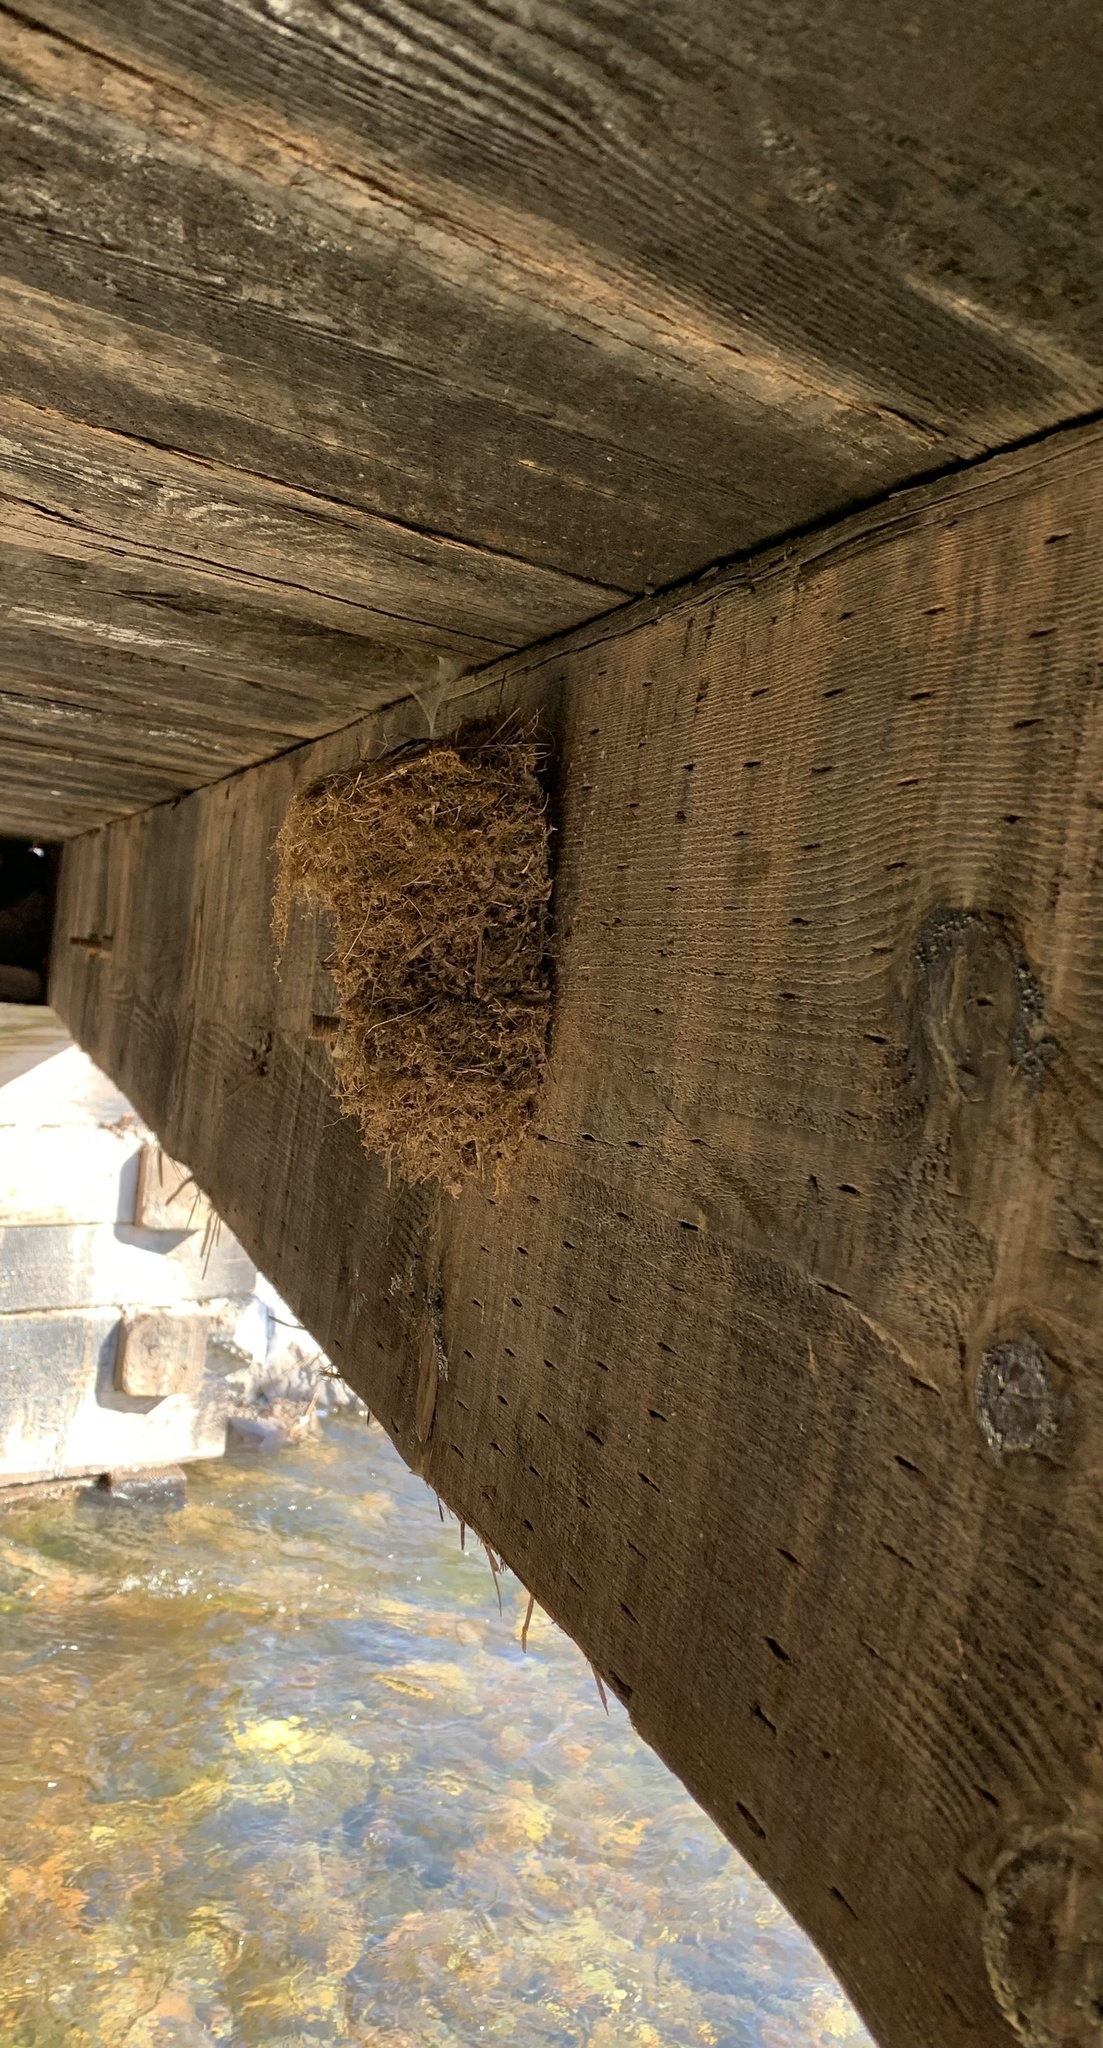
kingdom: Animalia
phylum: Chordata
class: Aves
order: Passeriformes
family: Tyrannidae
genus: Sayornis
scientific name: Sayornis phoebe
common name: Eastern phoebe
